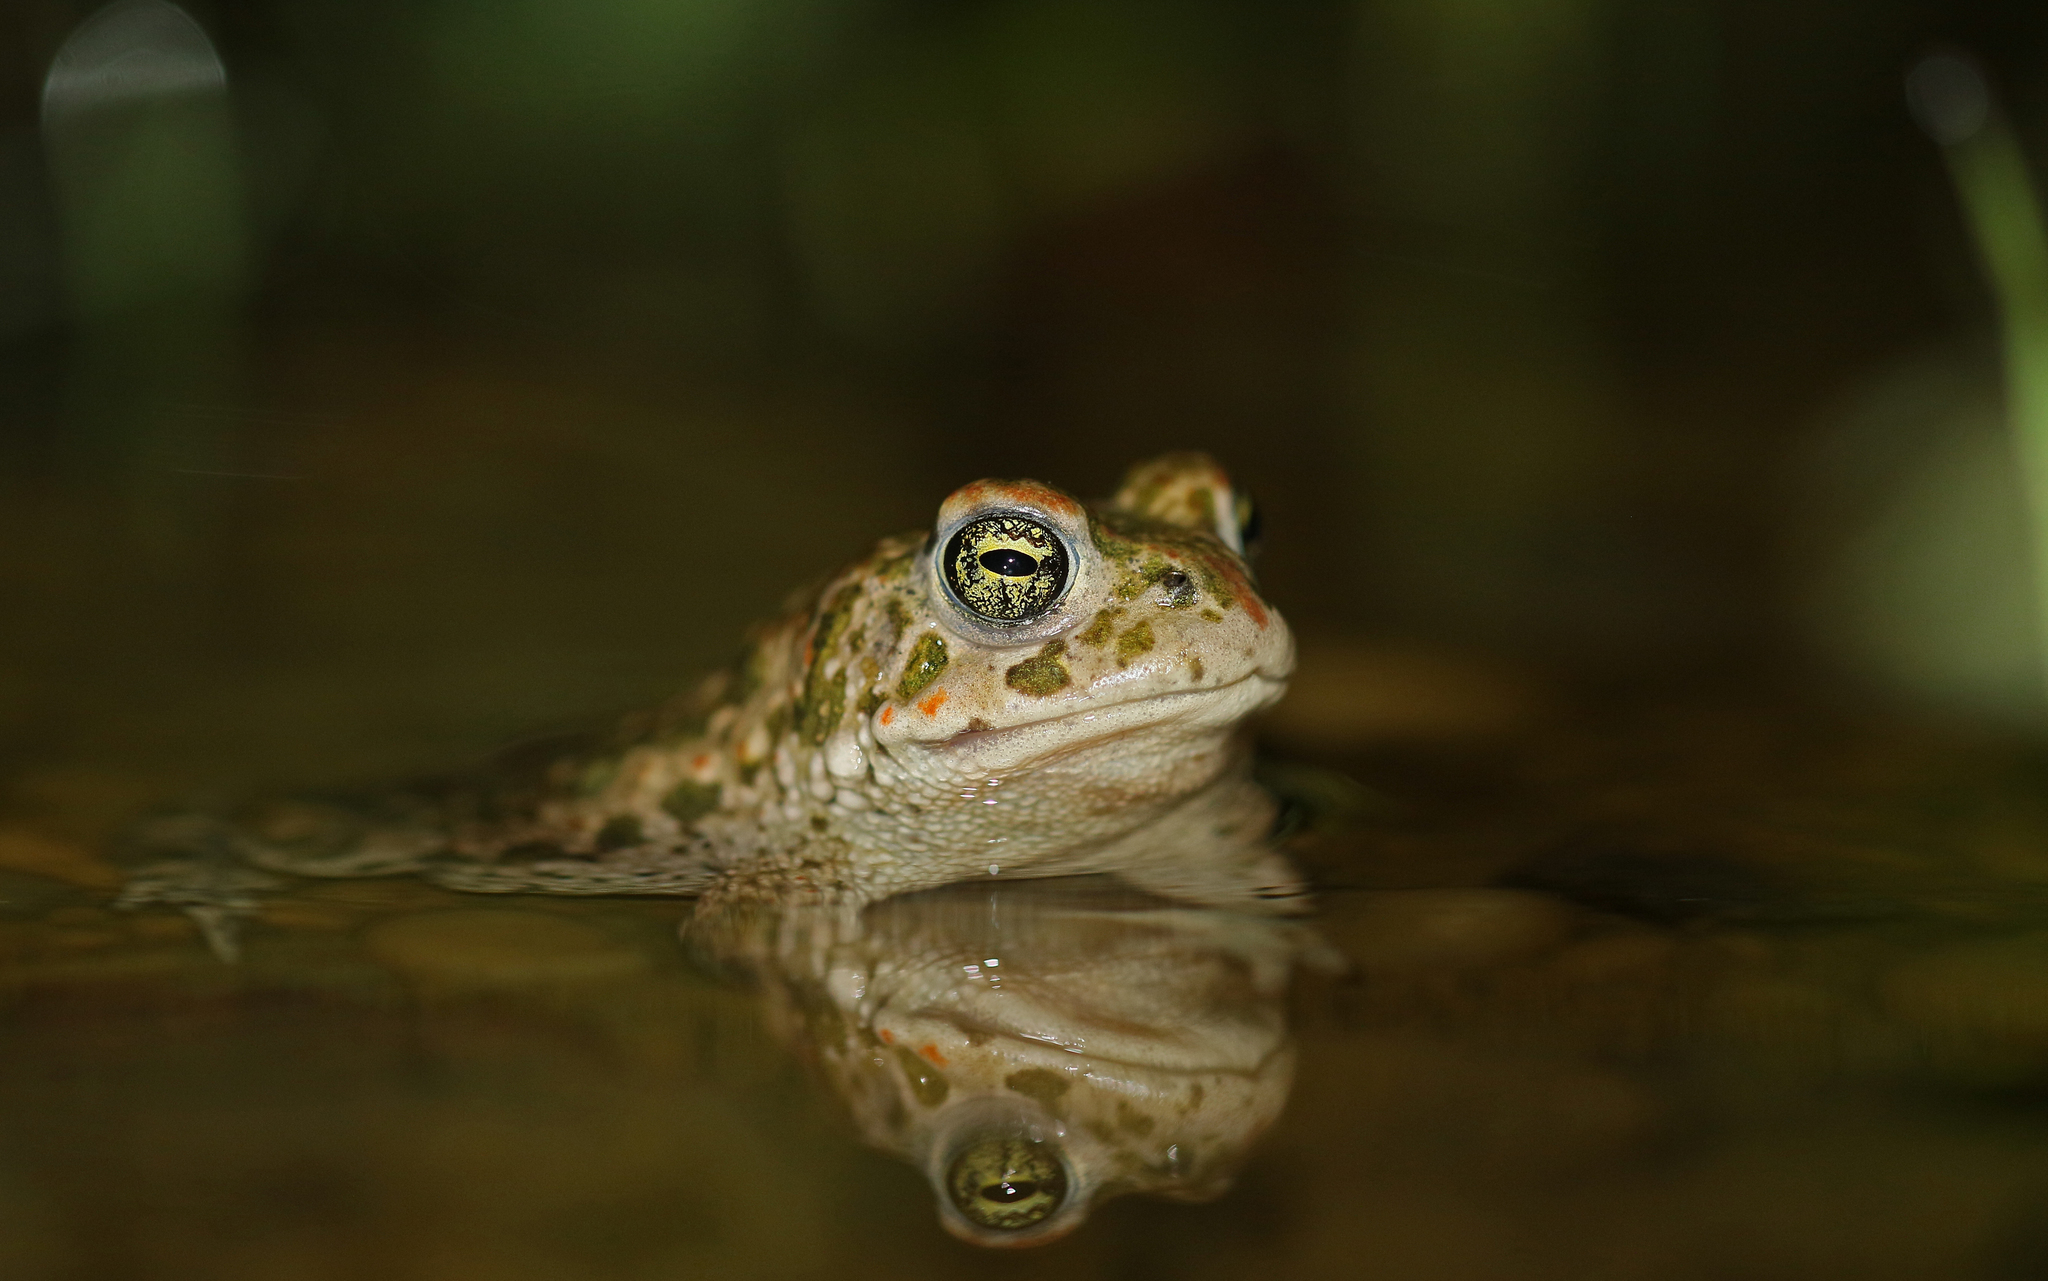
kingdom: Animalia
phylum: Chordata
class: Amphibia
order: Anura
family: Bufonidae
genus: Epidalea
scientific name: Epidalea calamita
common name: Natterjack toad
